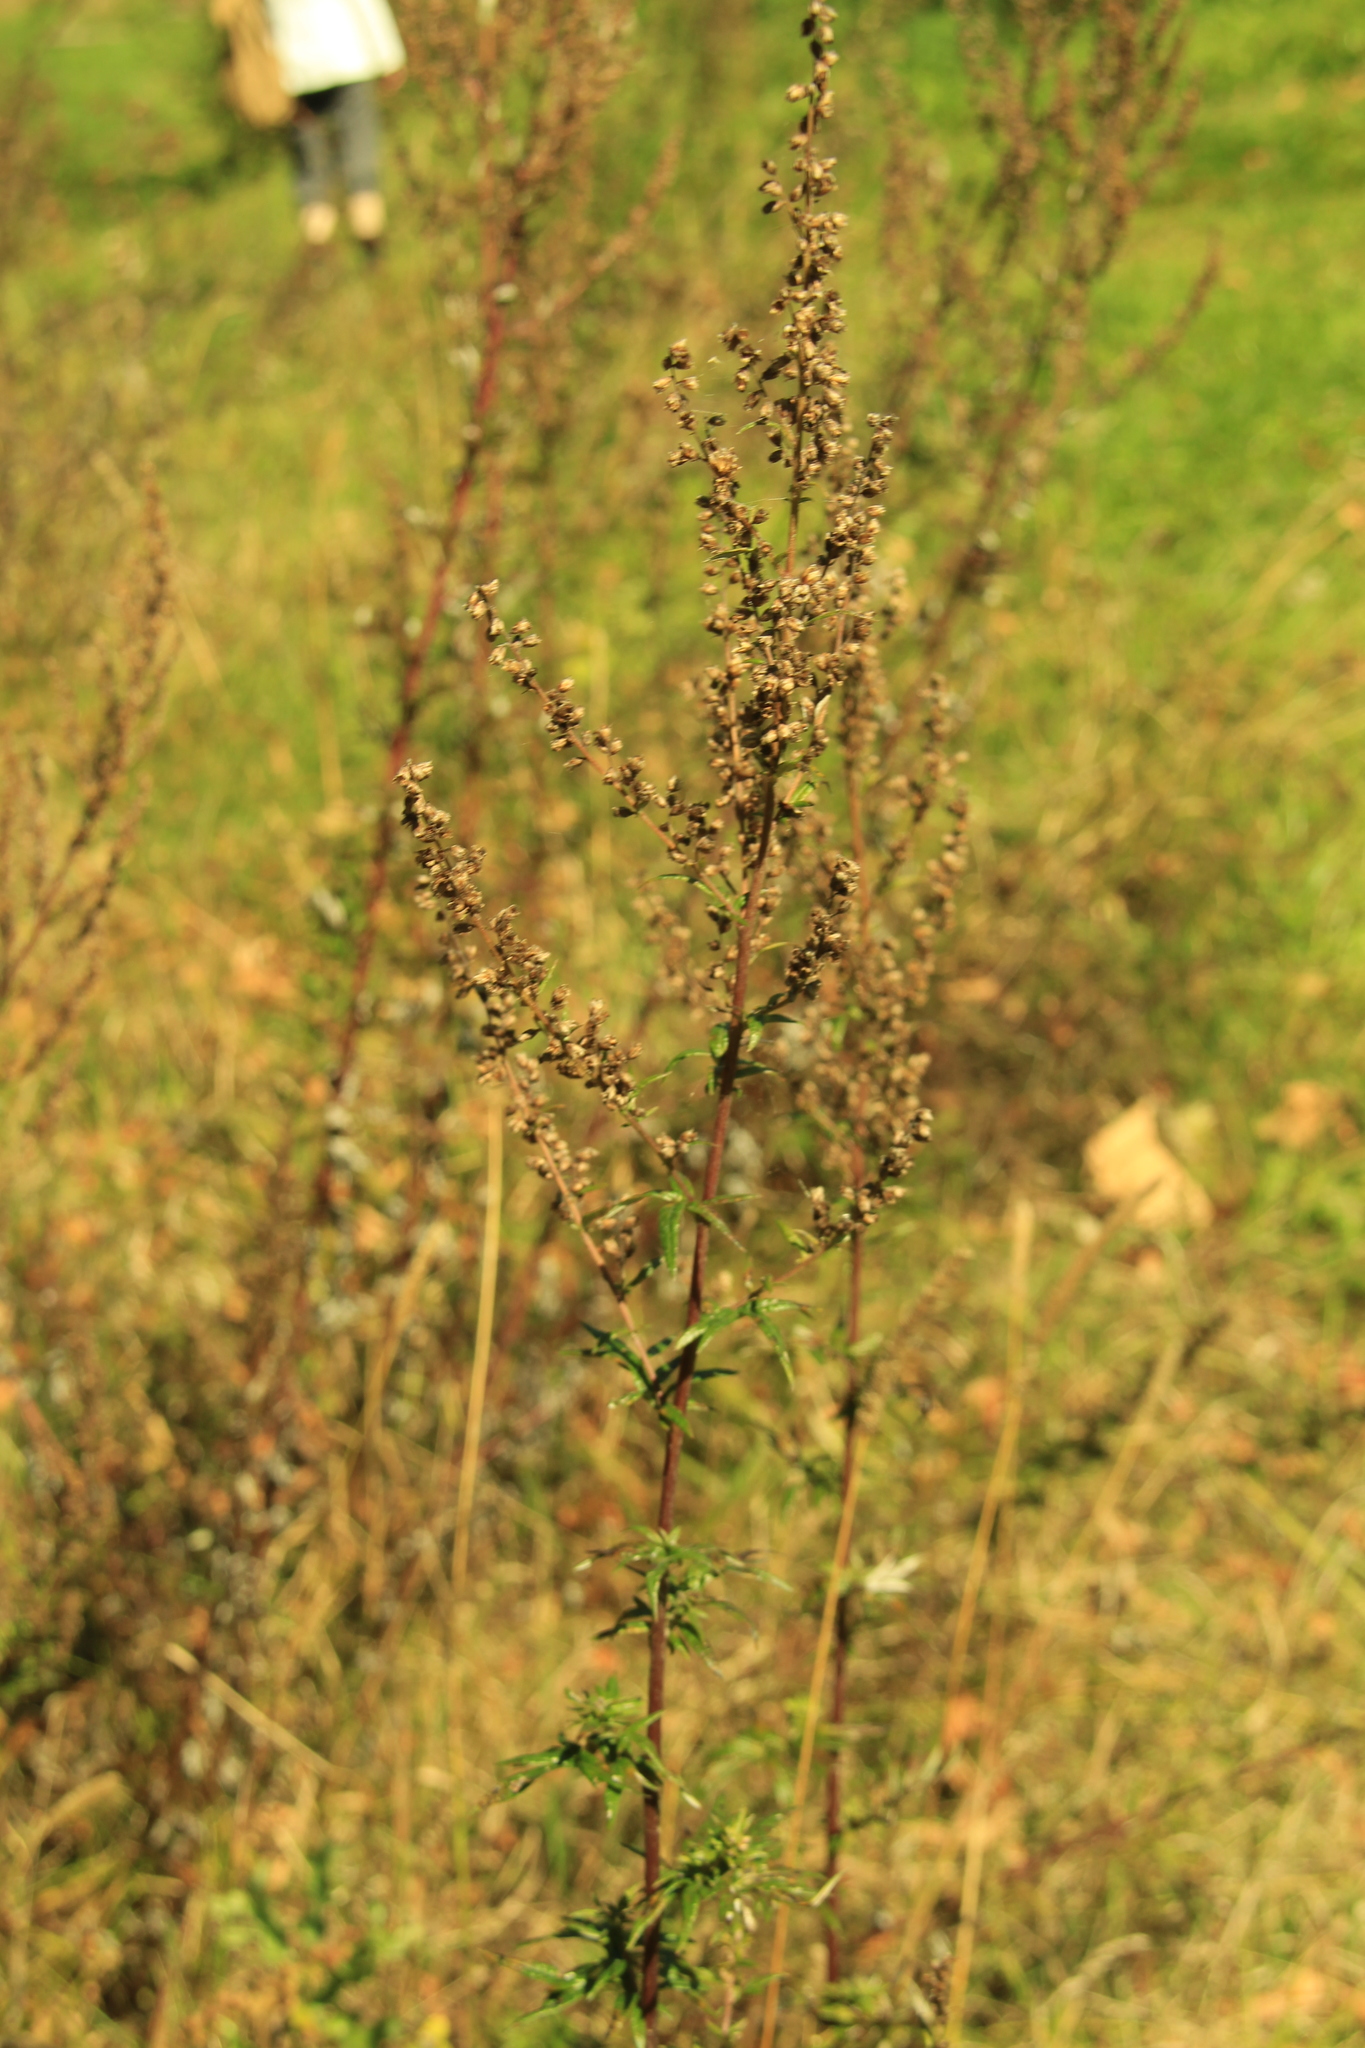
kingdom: Plantae
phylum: Tracheophyta
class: Magnoliopsida
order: Asterales
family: Asteraceae
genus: Artemisia
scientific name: Artemisia vulgaris
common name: Mugwort
